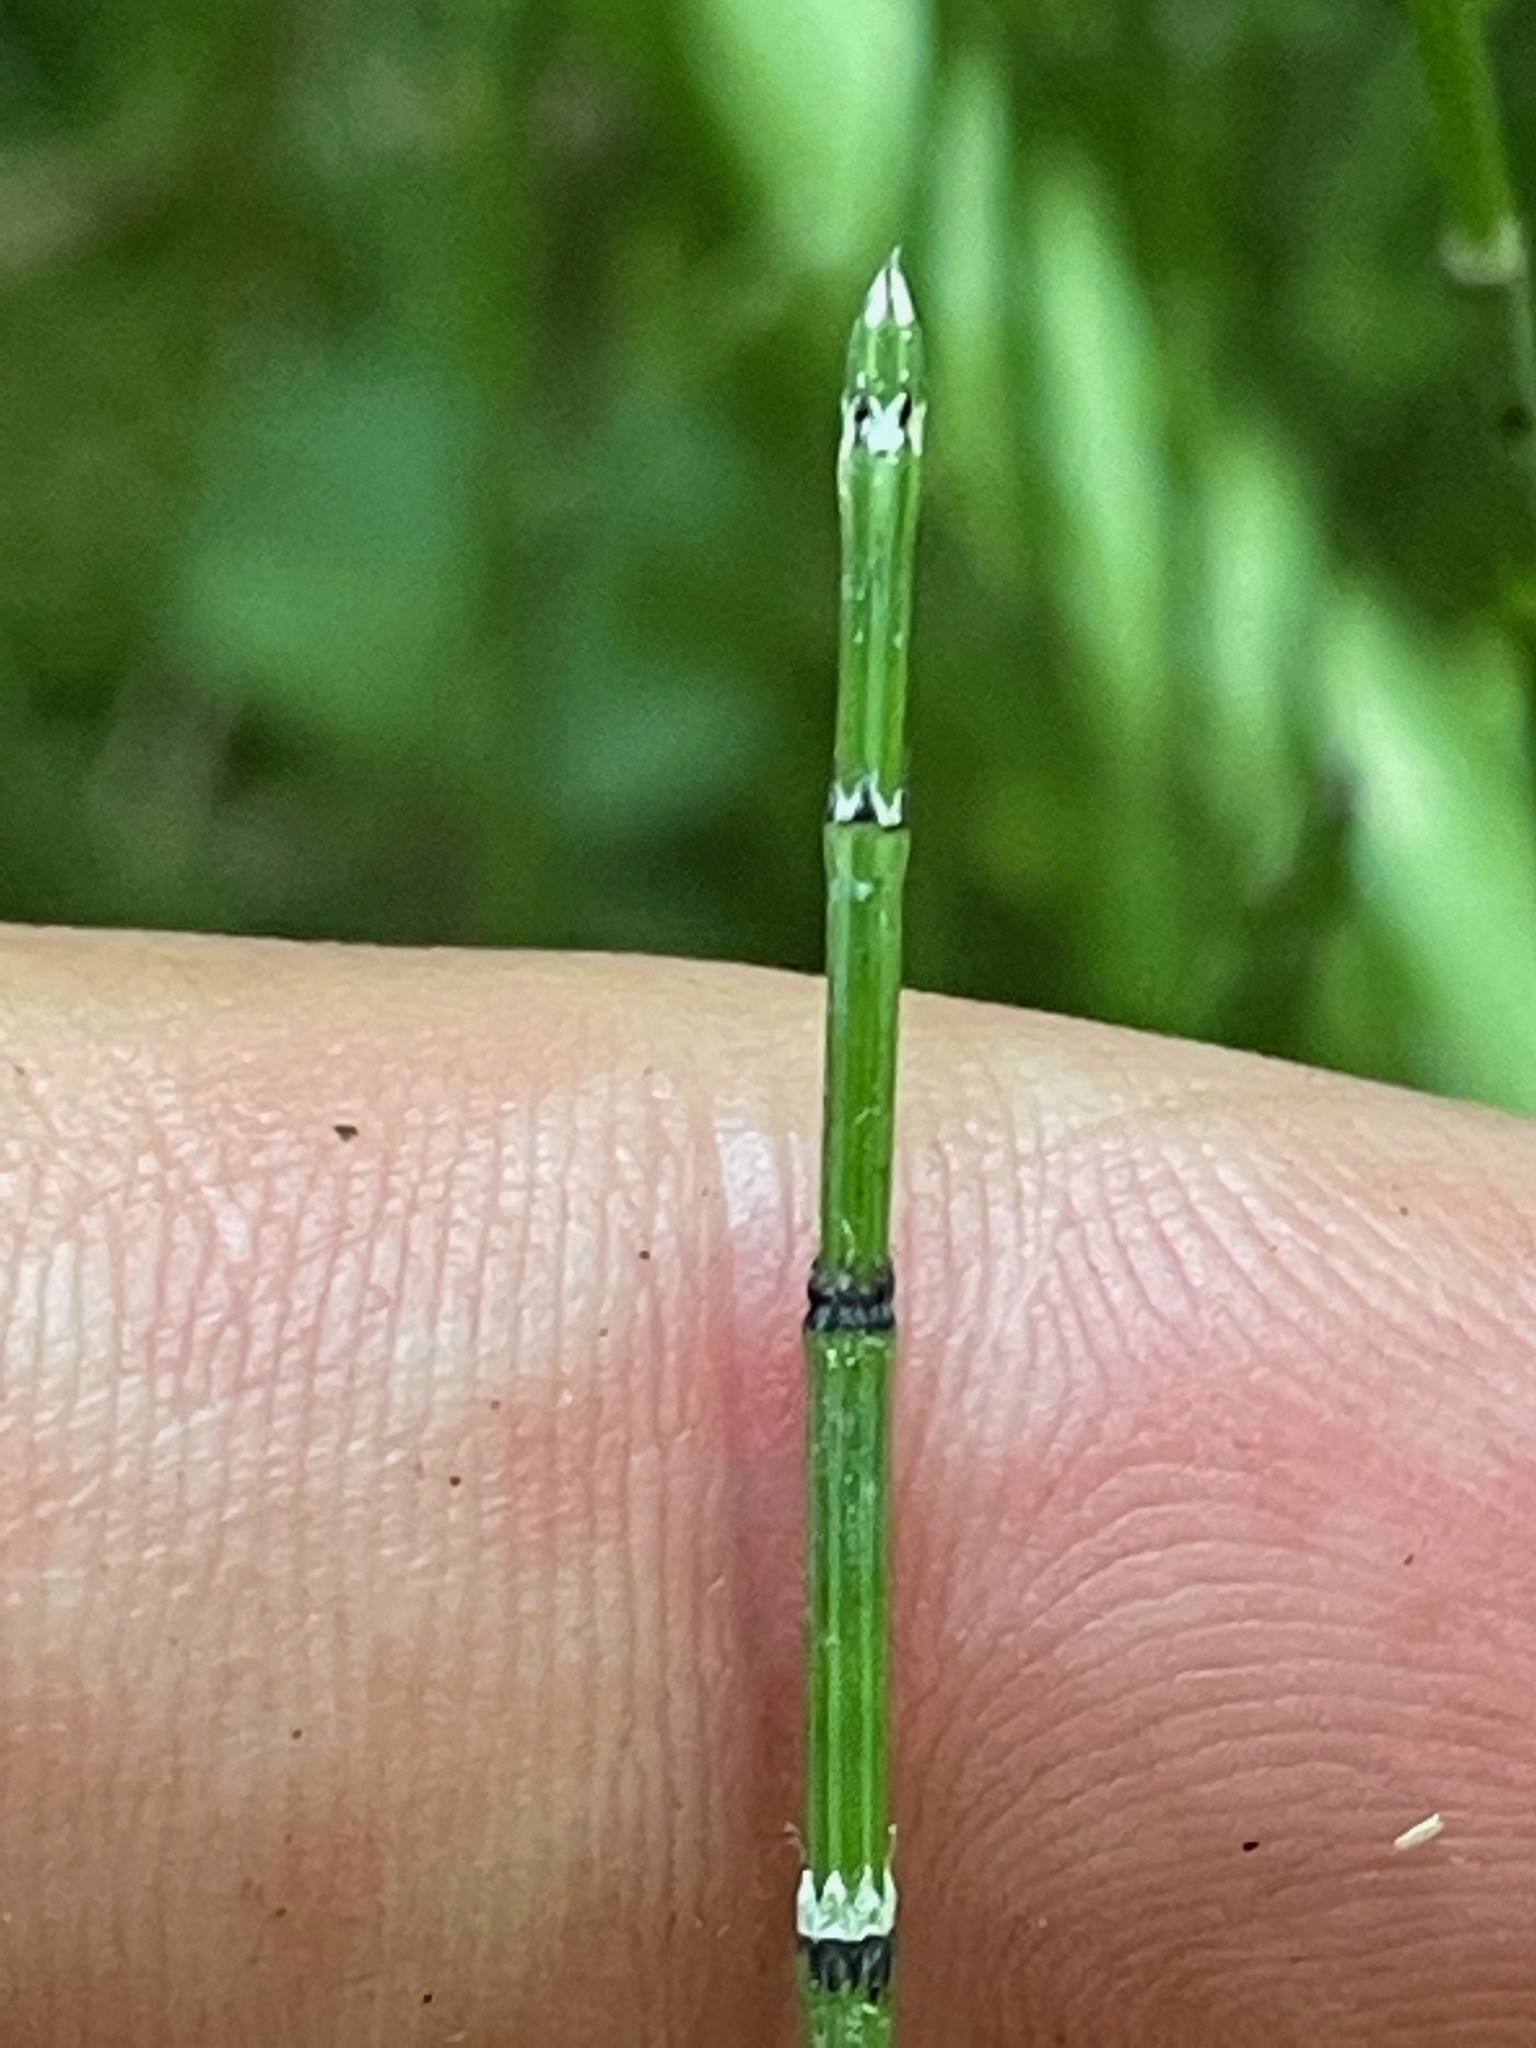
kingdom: Plantae
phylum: Tracheophyta
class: Polypodiopsida
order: Equisetales
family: Equisetaceae
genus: Equisetum
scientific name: Equisetum variegatum
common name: Variegated horsetail
